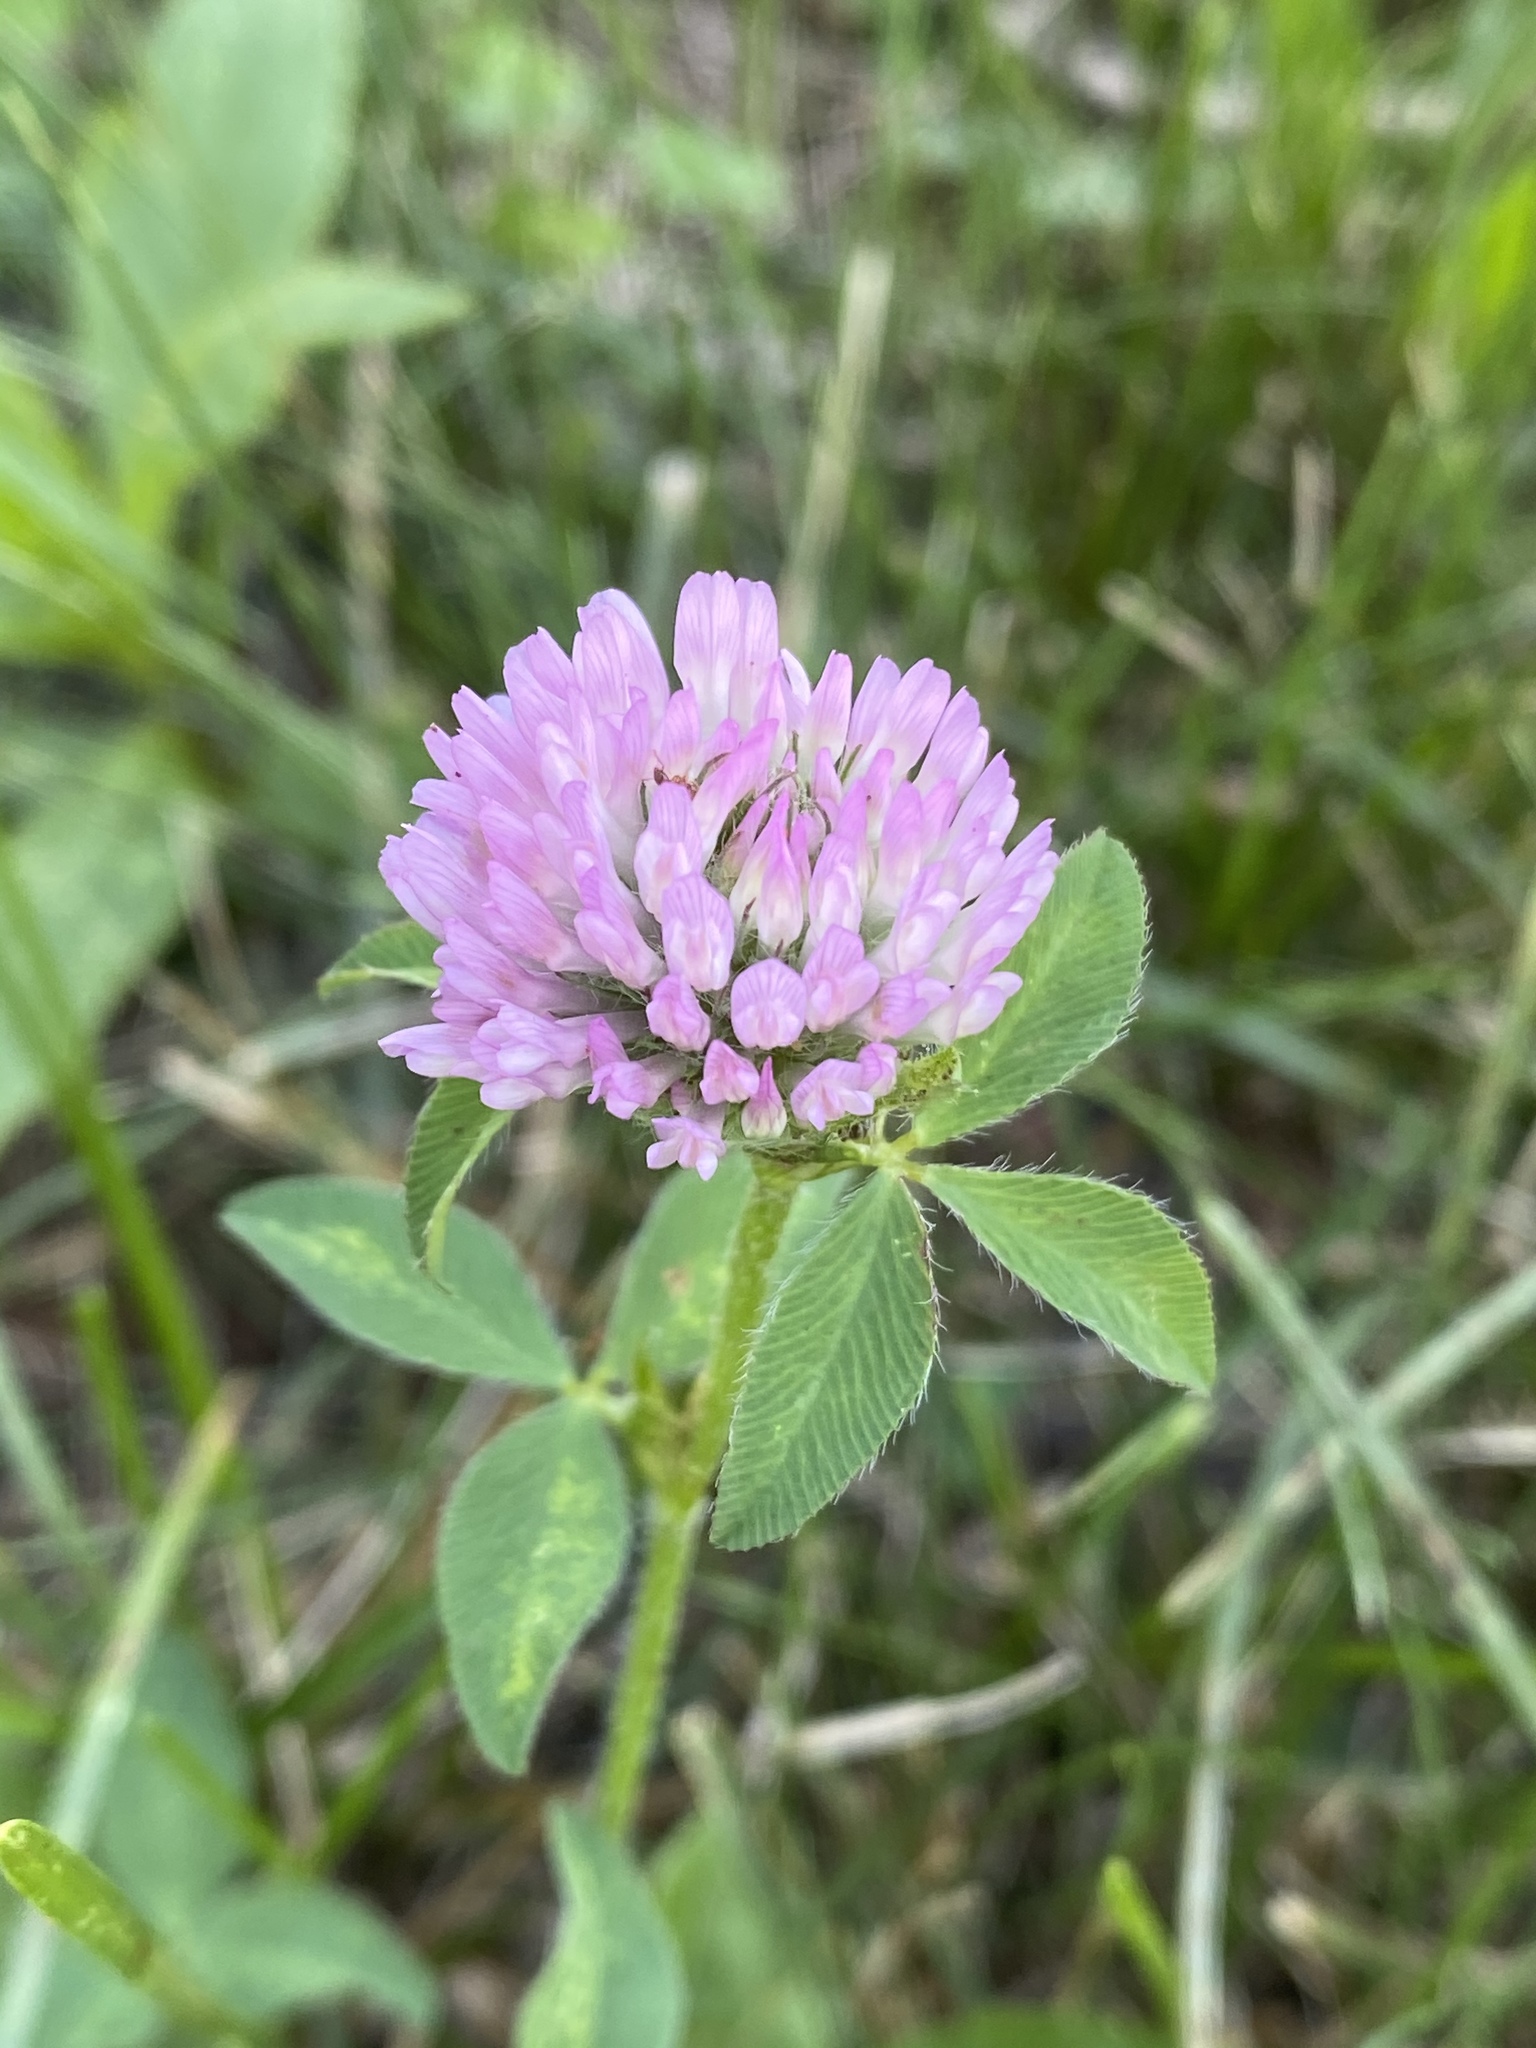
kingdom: Plantae
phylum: Tracheophyta
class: Magnoliopsida
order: Fabales
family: Fabaceae
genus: Trifolium
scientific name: Trifolium pratense
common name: Red clover
